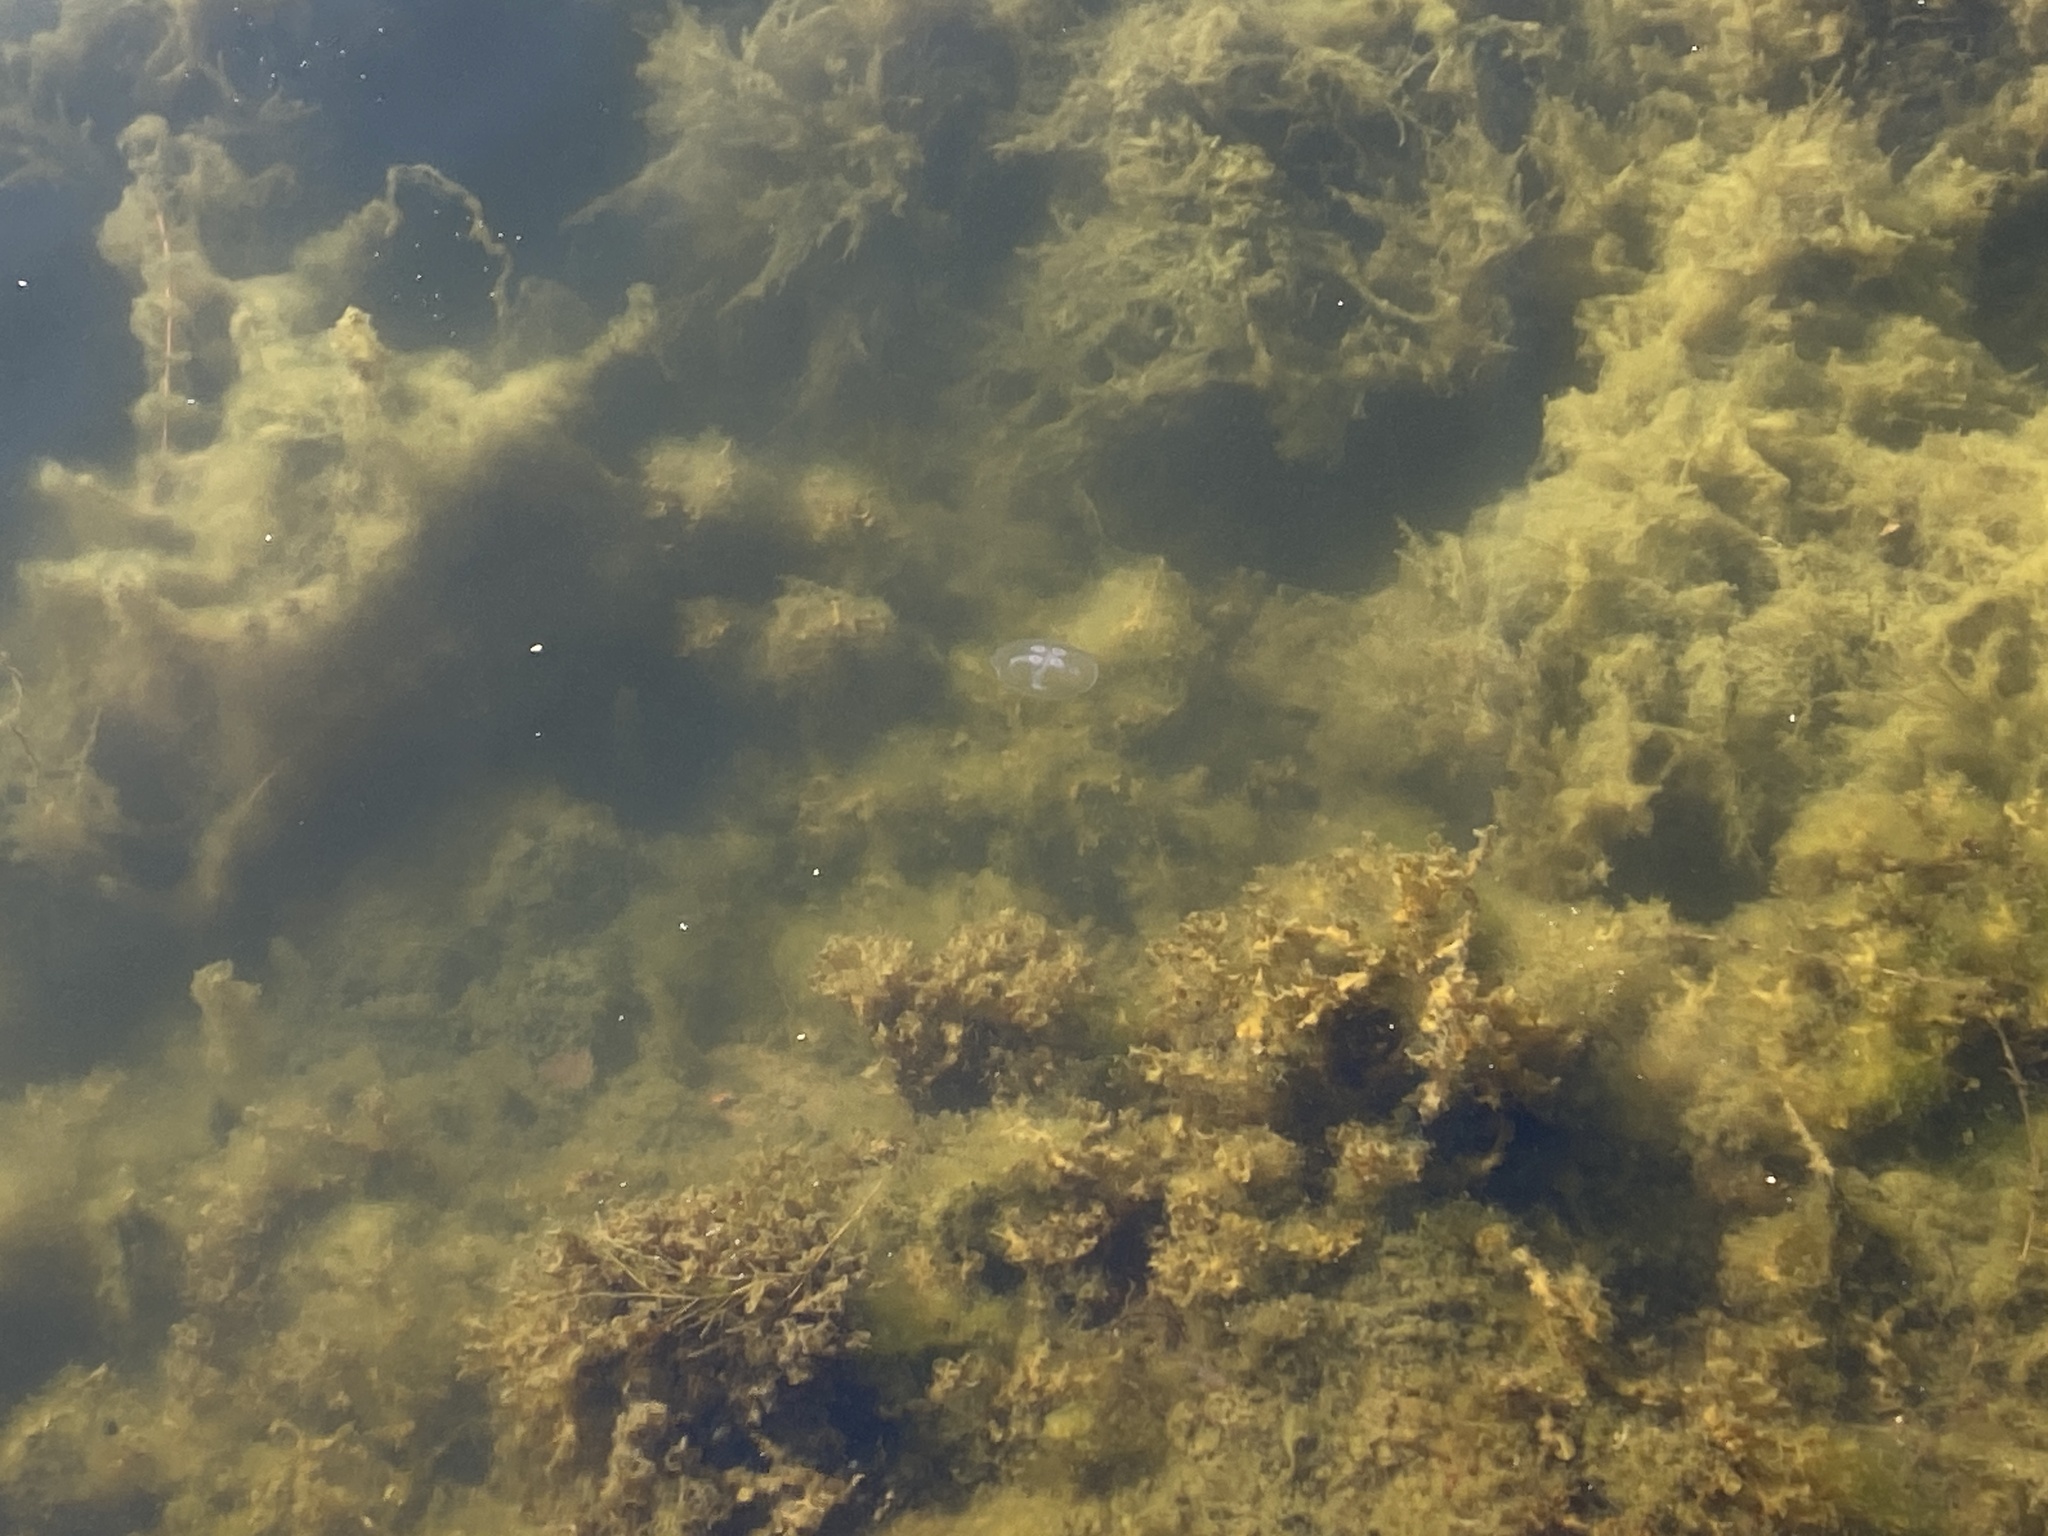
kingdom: Animalia
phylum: Cnidaria
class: Scyphozoa
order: Semaeostomeae
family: Ulmaridae
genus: Aurelia
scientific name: Aurelia aurita
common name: Moon jellyfish
